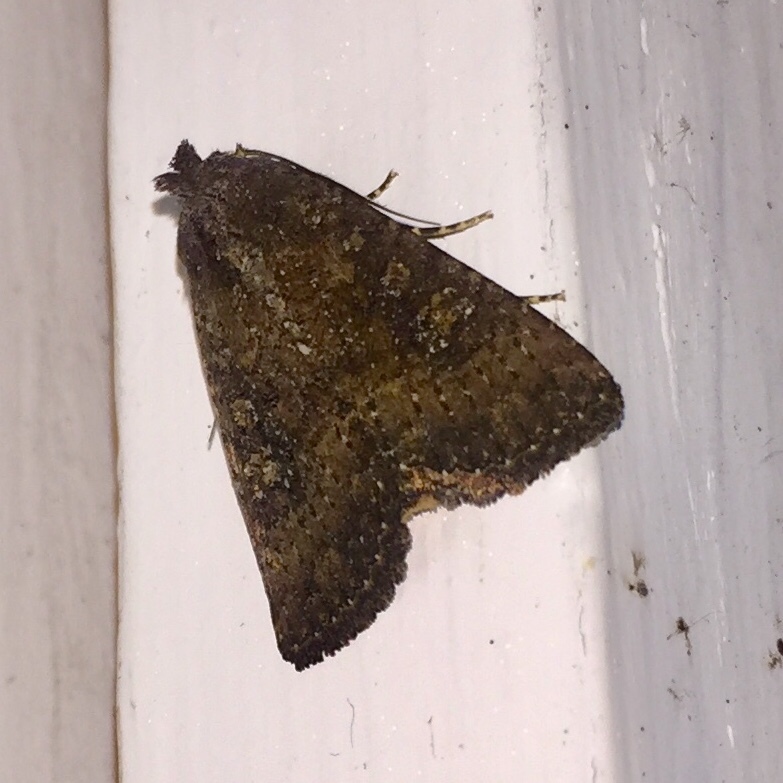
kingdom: Animalia
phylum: Arthropoda
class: Insecta
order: Lepidoptera
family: Noctuidae
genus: Condica
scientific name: Condica sutor
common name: Cobbler moth
